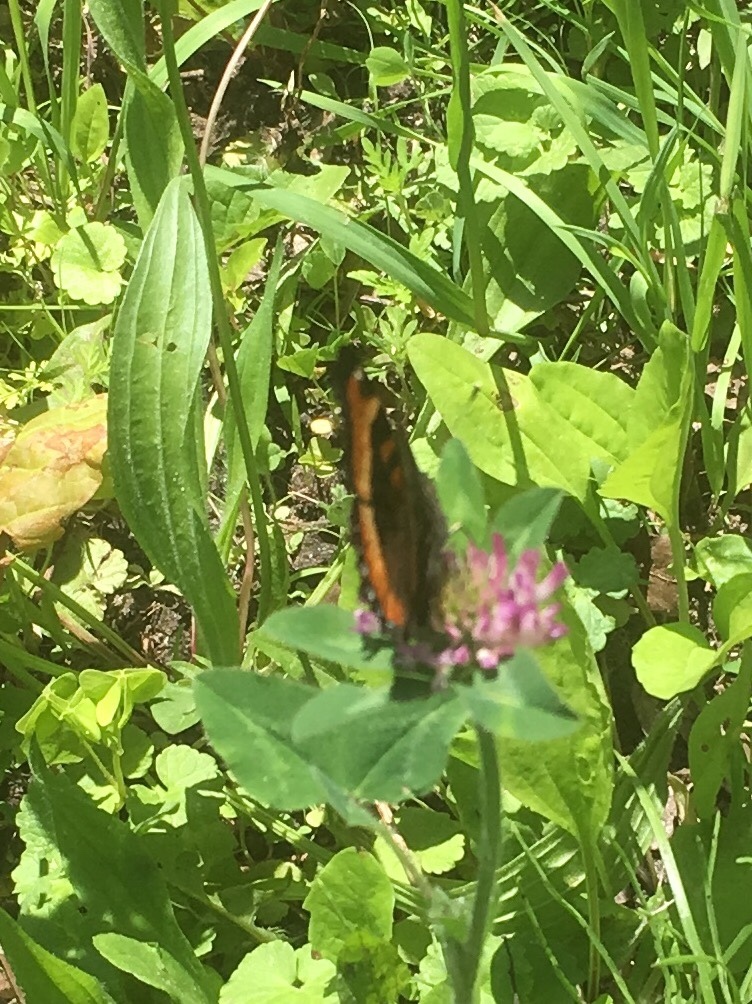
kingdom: Animalia
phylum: Arthropoda
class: Insecta
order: Lepidoptera
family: Nymphalidae
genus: Aglais
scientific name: Aglais milberti
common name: Milbert's tortoiseshell
